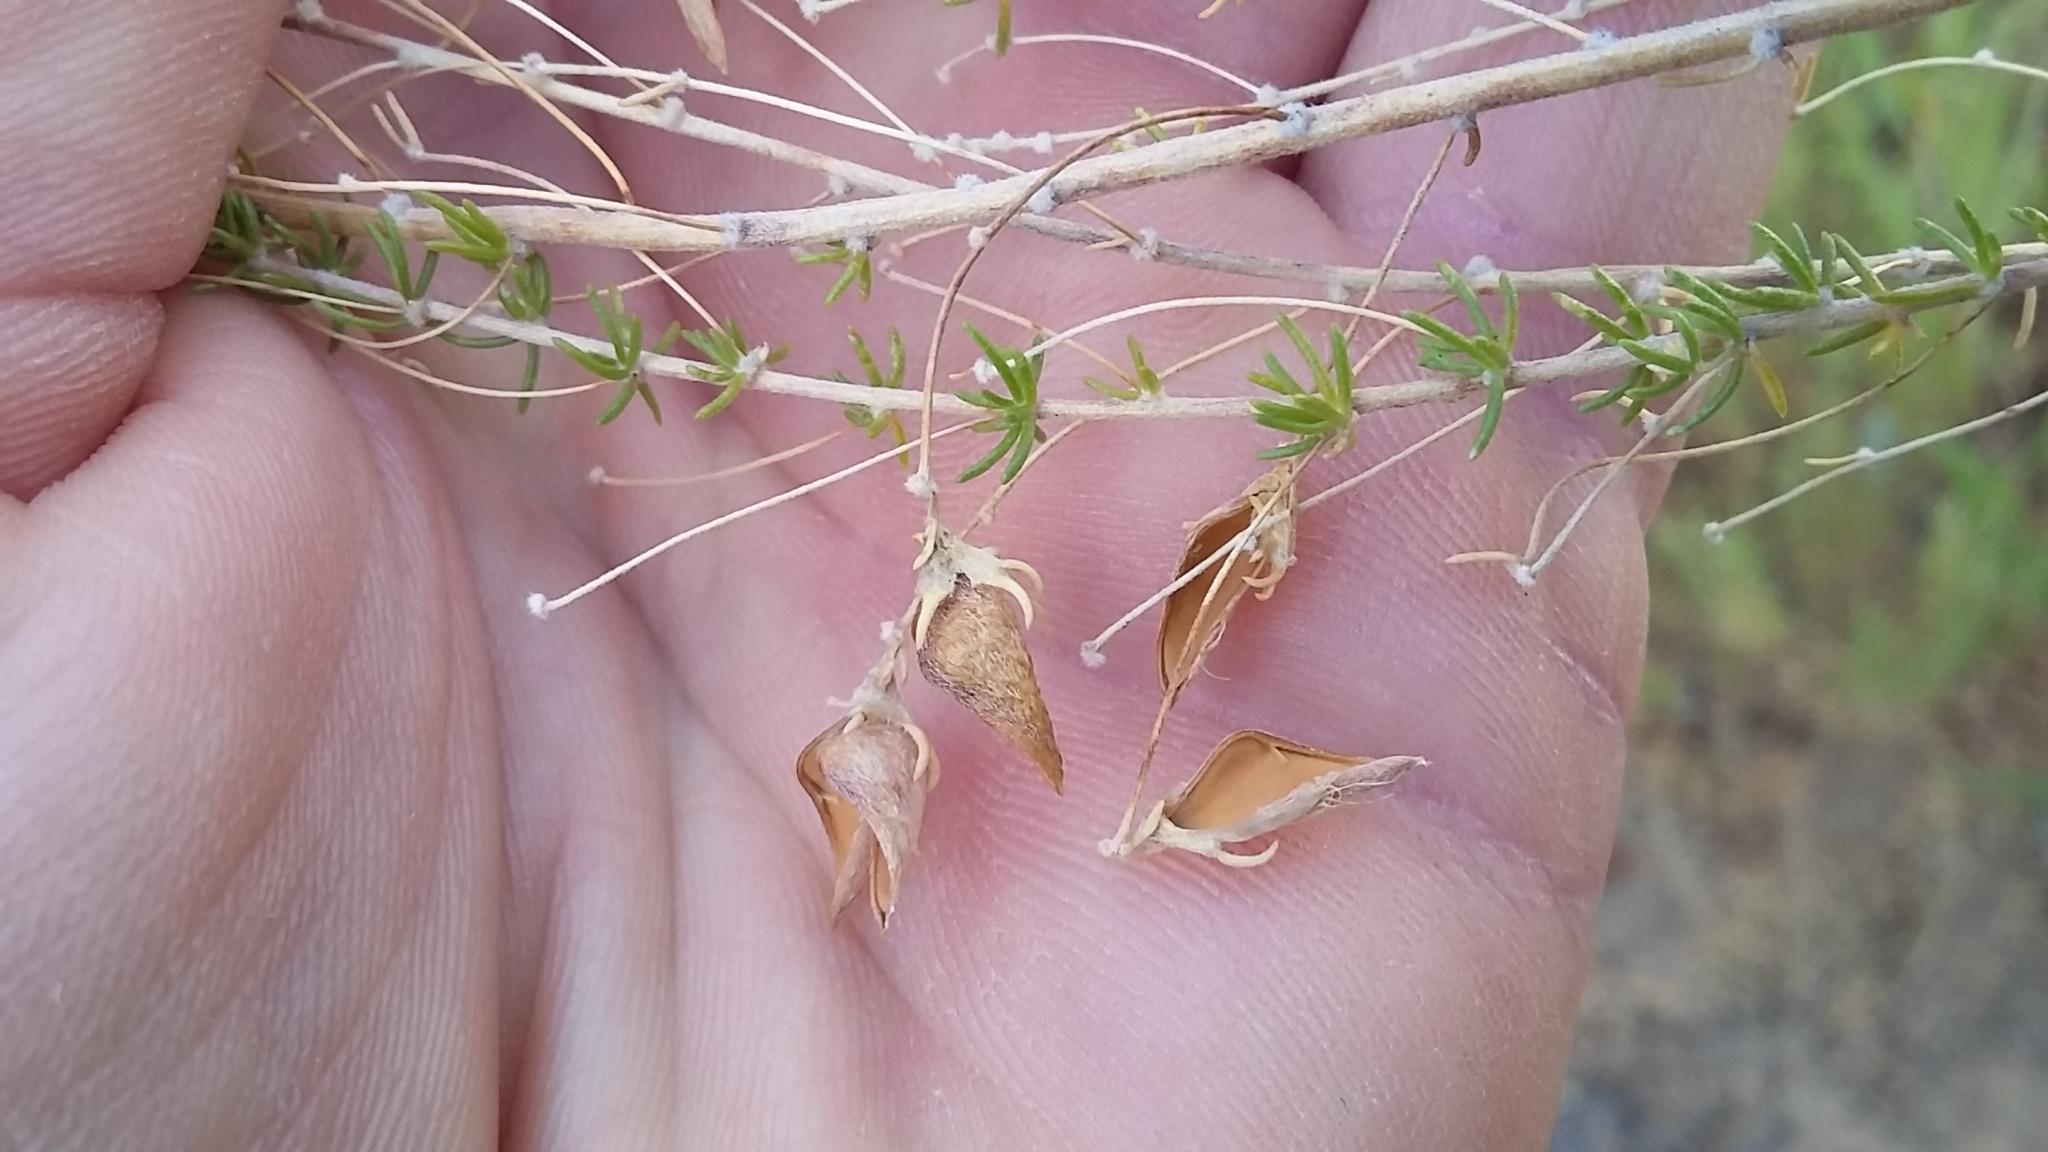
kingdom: Plantae
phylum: Tracheophyta
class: Magnoliopsida
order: Fabales
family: Fabaceae
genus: Aspalathus
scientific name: Aspalathus amoena
